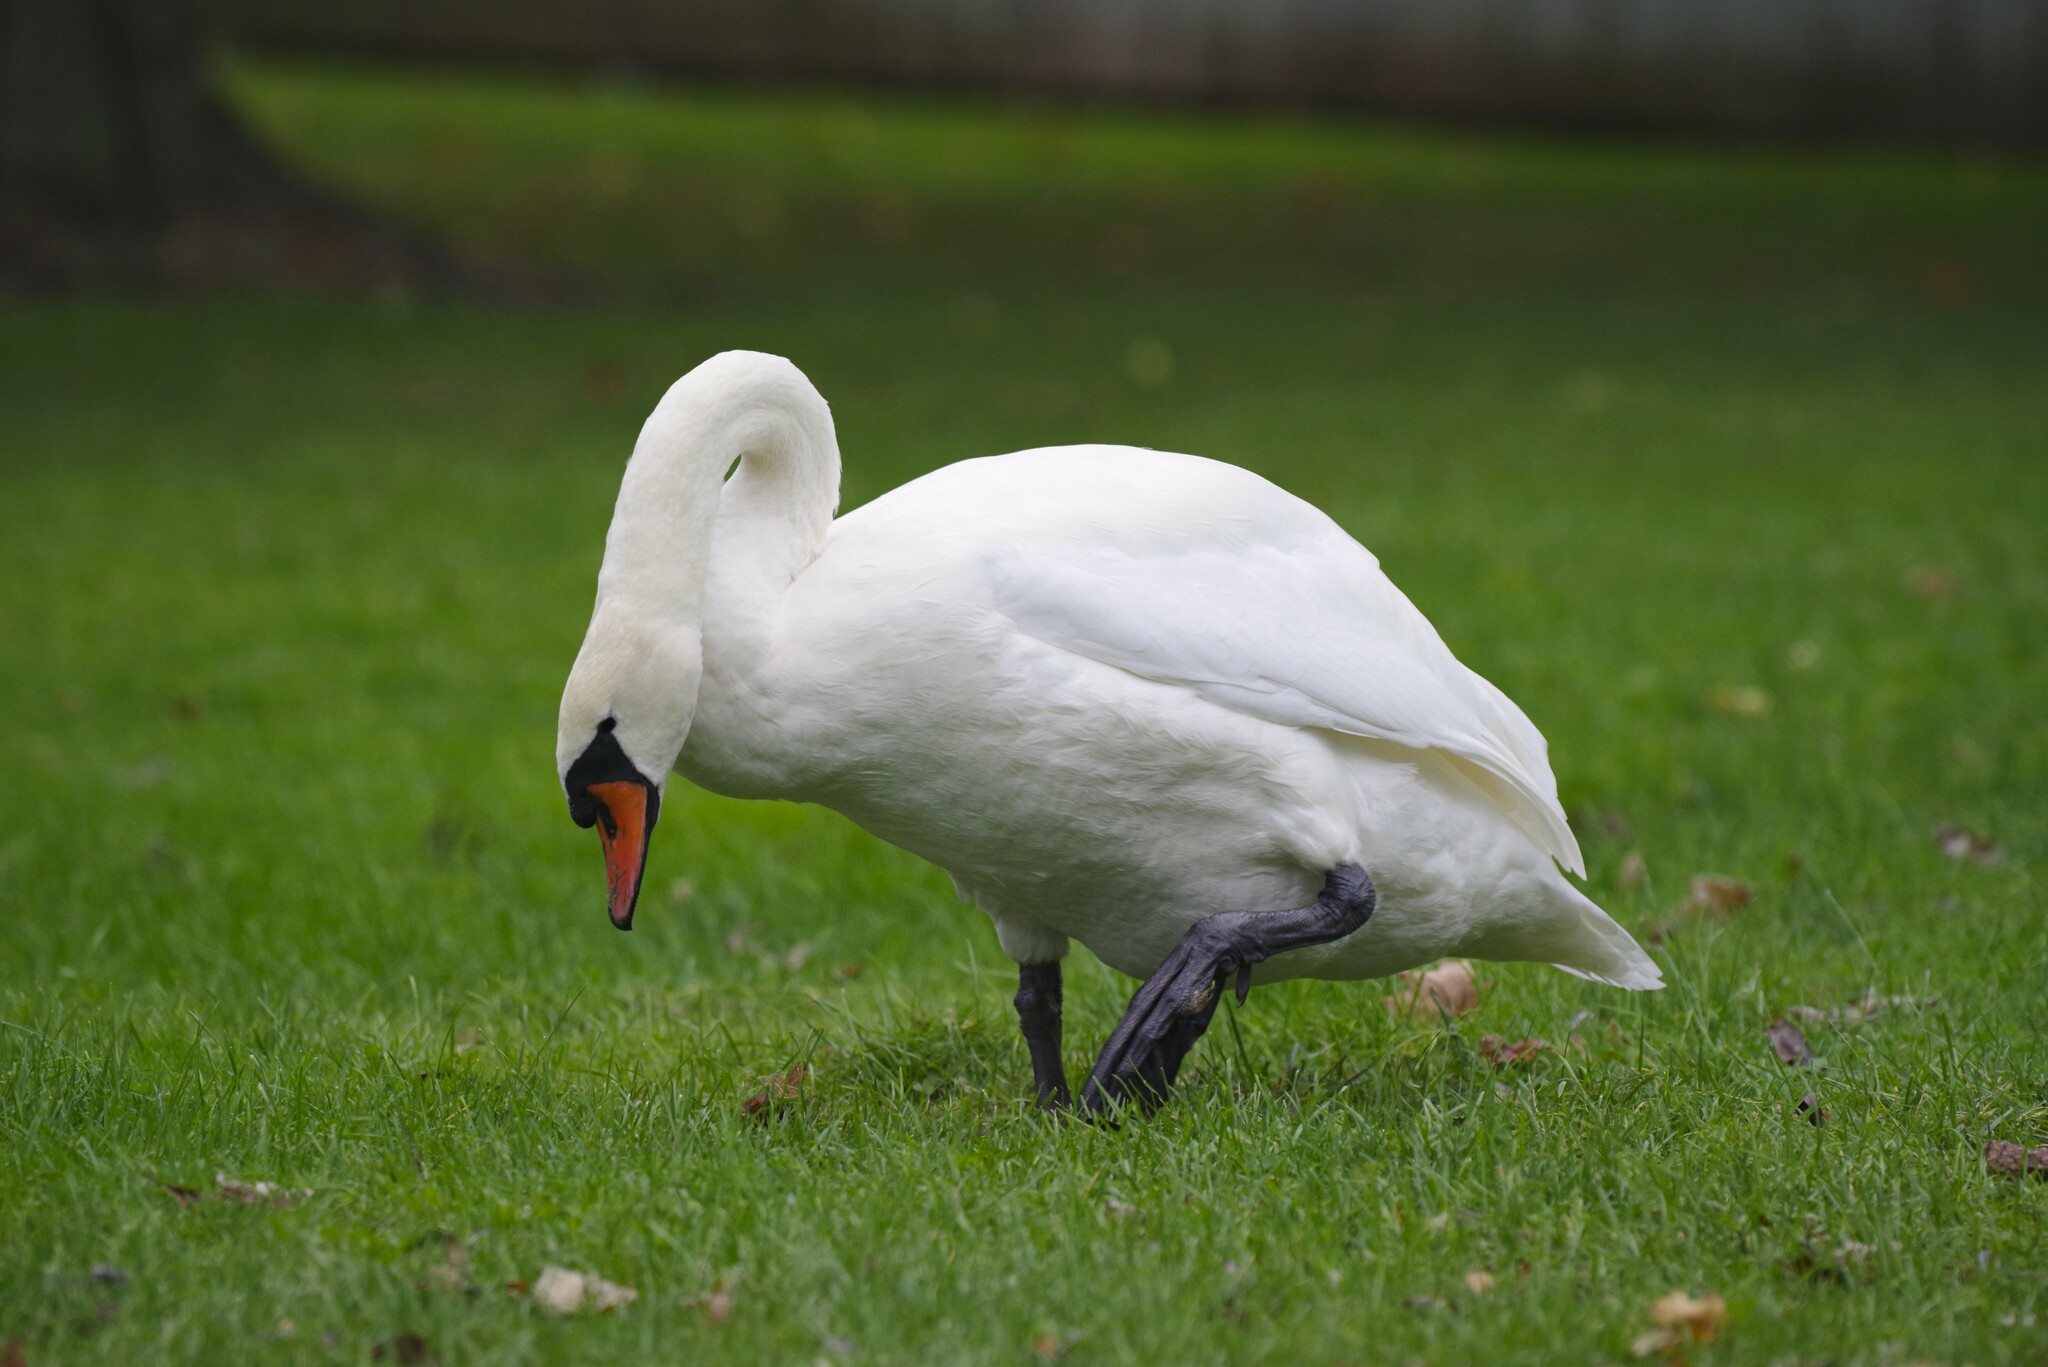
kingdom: Animalia
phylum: Chordata
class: Aves
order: Anseriformes
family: Anatidae
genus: Cygnus
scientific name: Cygnus olor
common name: Mute swan
